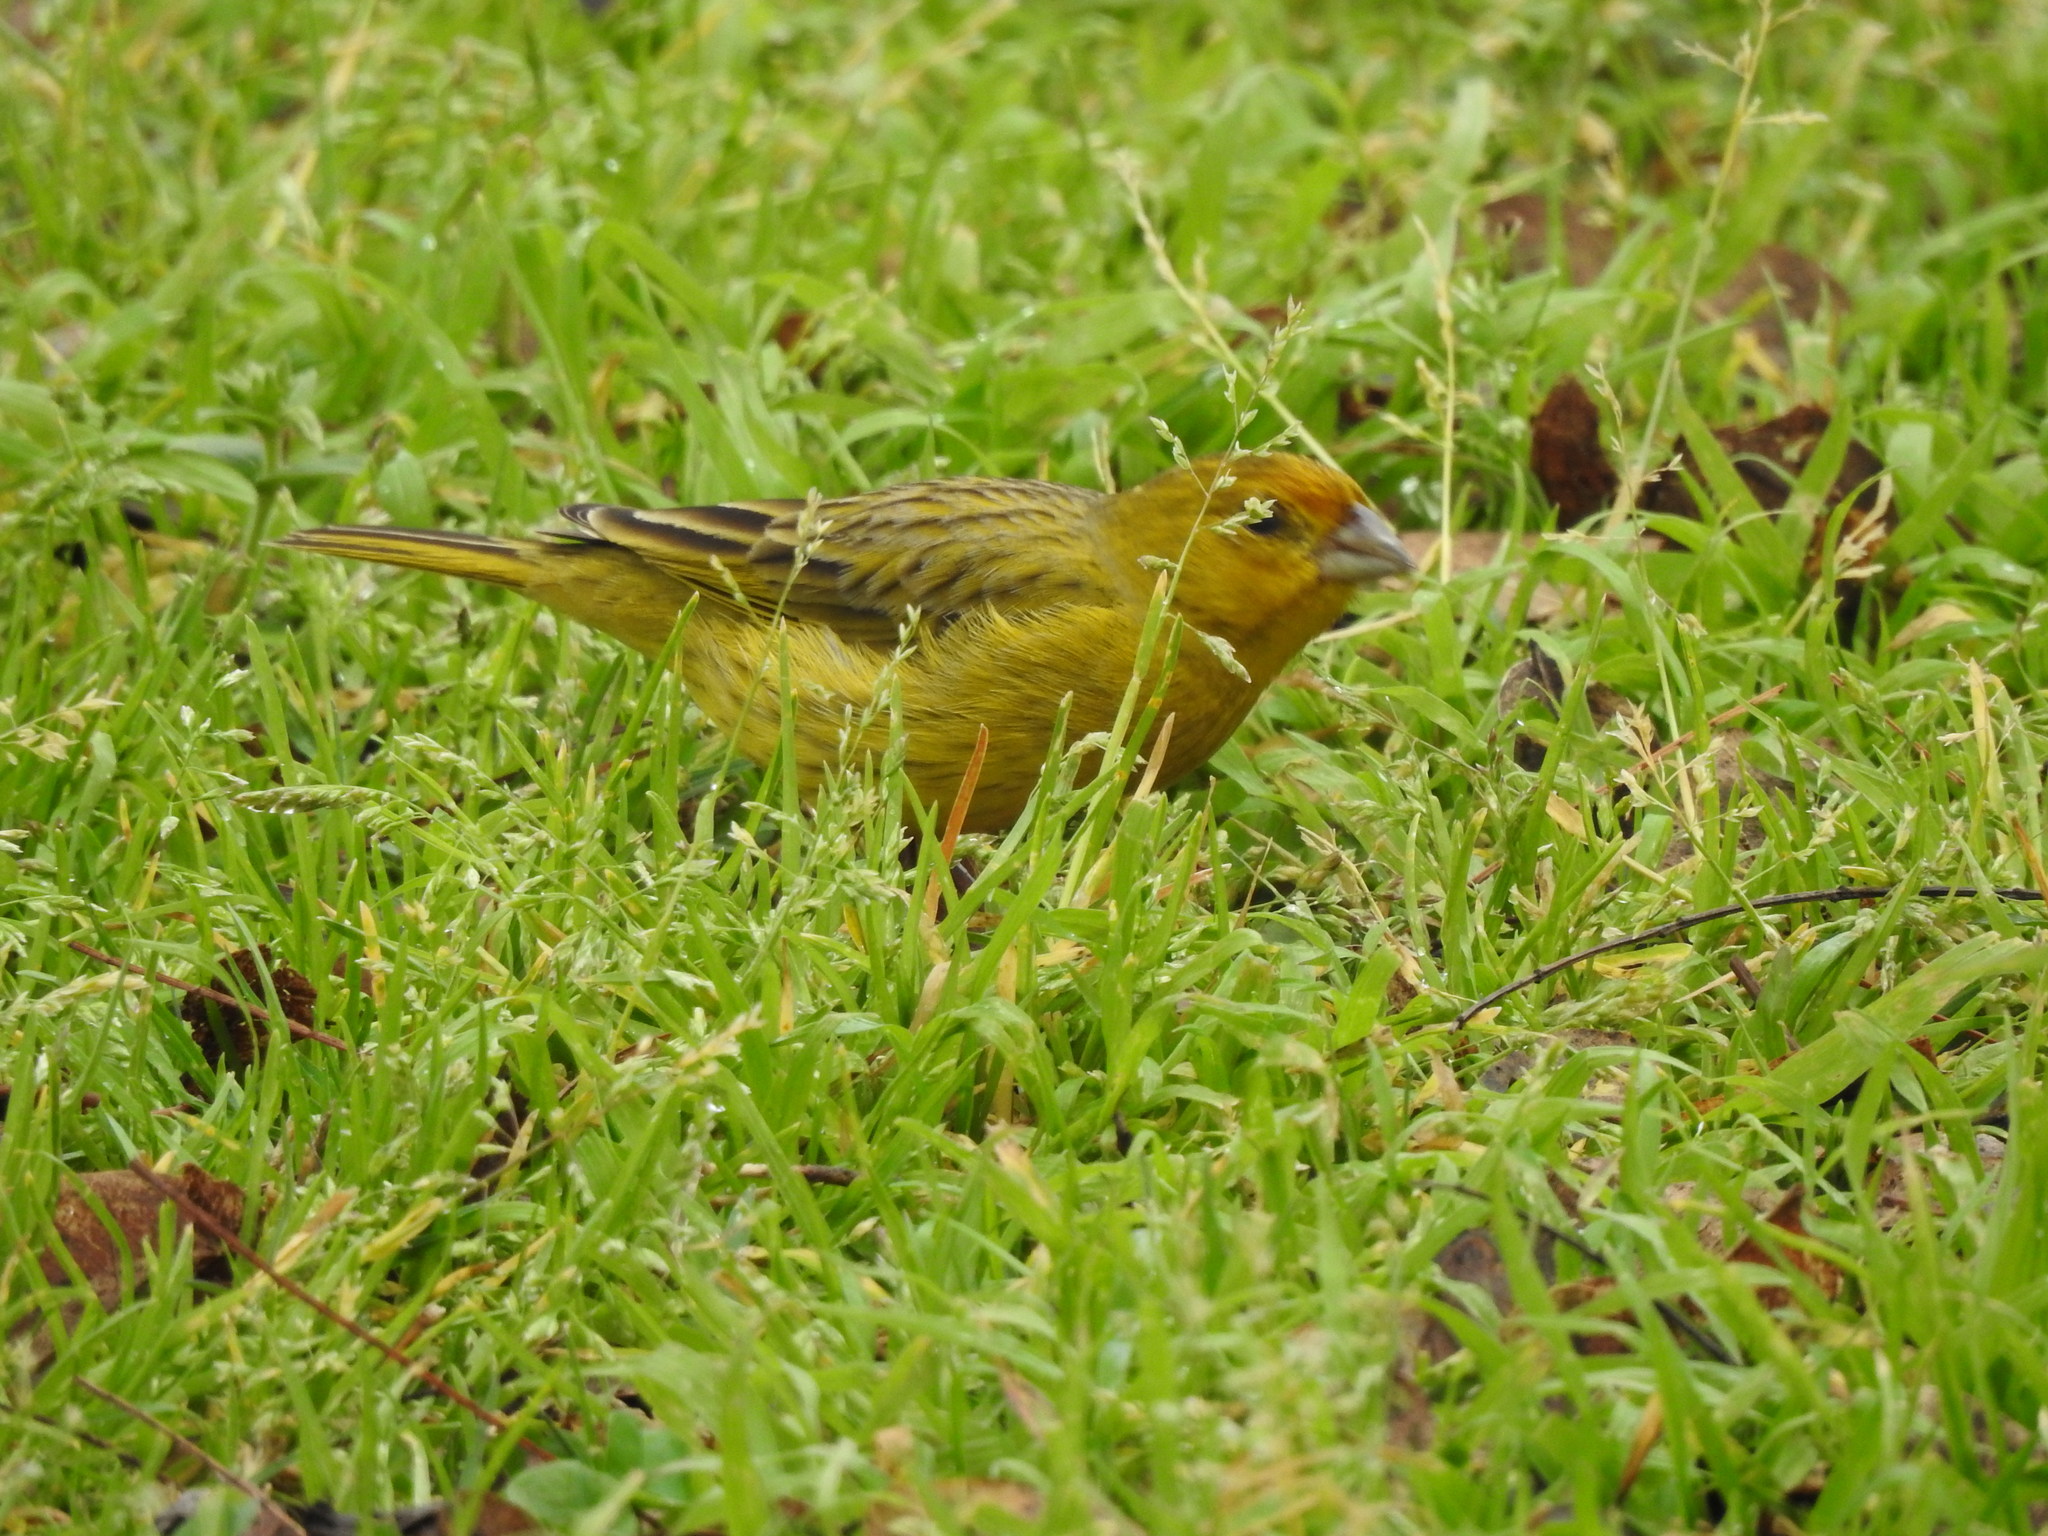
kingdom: Animalia
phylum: Chordata
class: Aves
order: Passeriformes
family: Thraupidae
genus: Sicalis
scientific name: Sicalis flaveola
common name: Saffron finch
